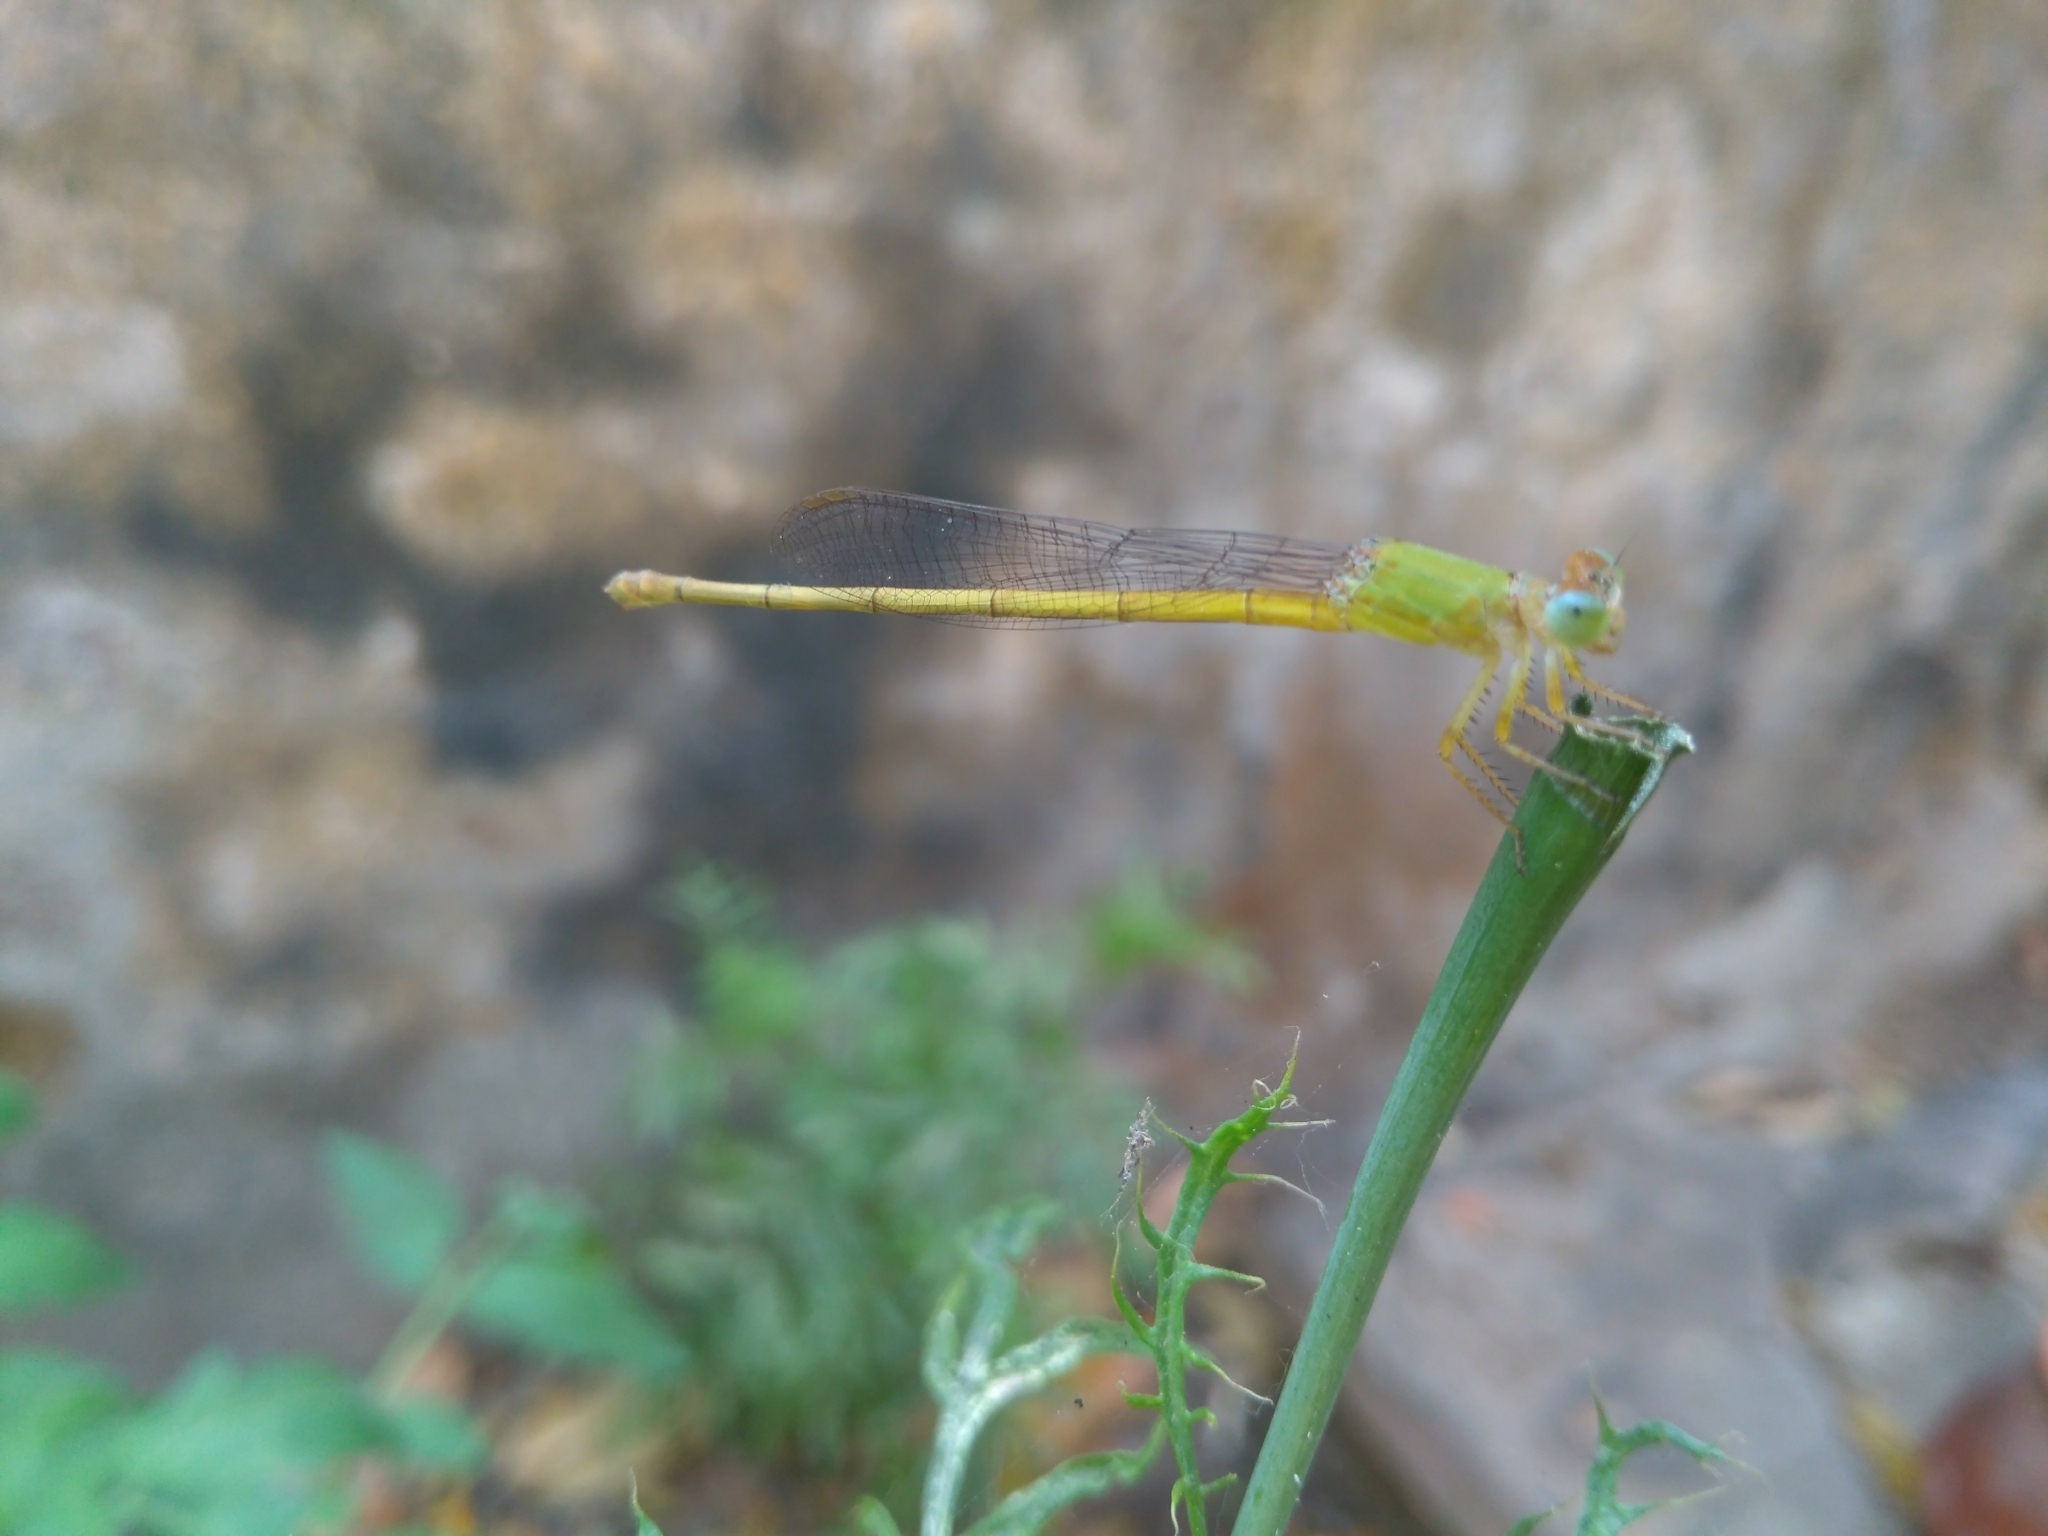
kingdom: Animalia
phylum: Arthropoda
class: Insecta
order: Odonata
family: Coenagrionidae
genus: Ceriagrion
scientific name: Ceriagrion coromandelianum
